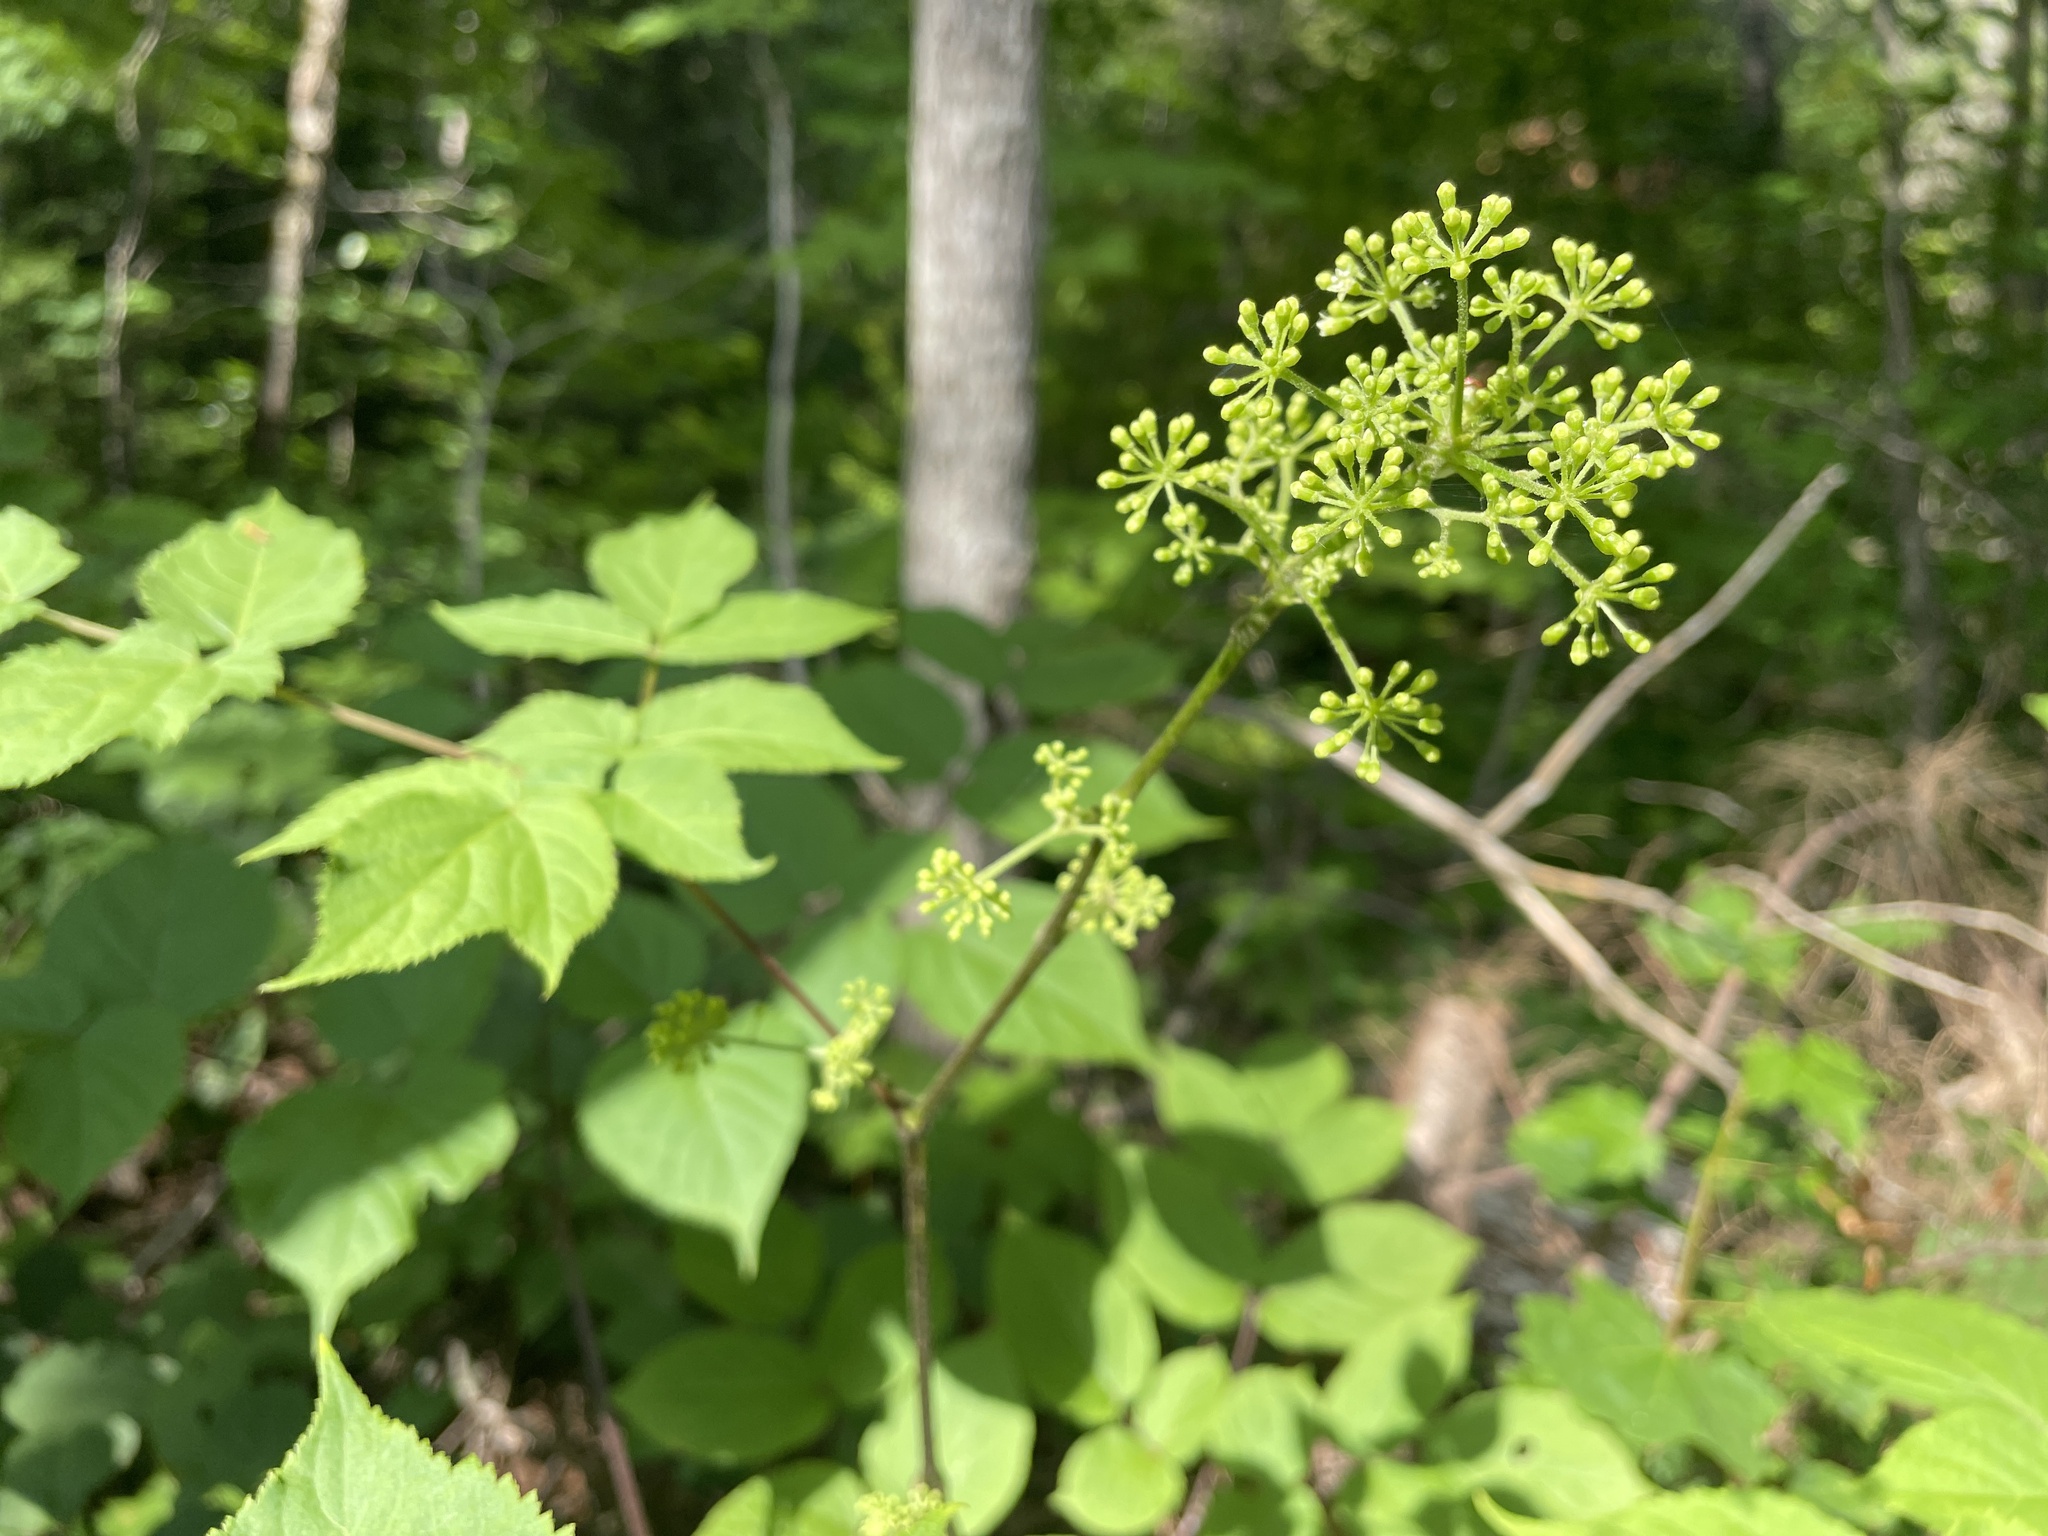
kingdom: Plantae
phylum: Tracheophyta
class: Magnoliopsida
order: Apiales
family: Araliaceae
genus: Aralia
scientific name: Aralia racemosa
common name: American-spikenard
